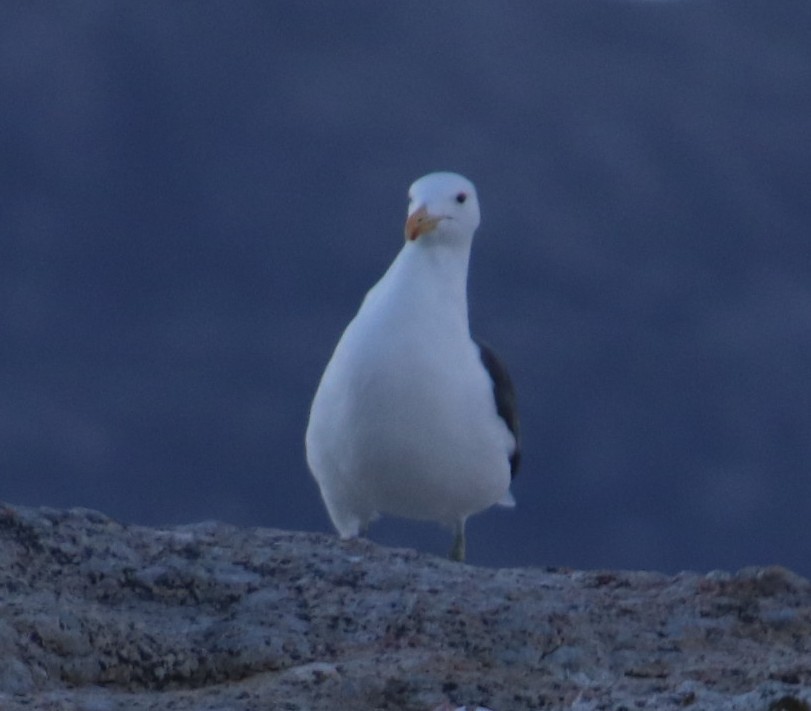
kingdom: Animalia
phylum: Chordata
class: Aves
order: Charadriiformes
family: Laridae
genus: Larus
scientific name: Larus dominicanus
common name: Kelp gull
